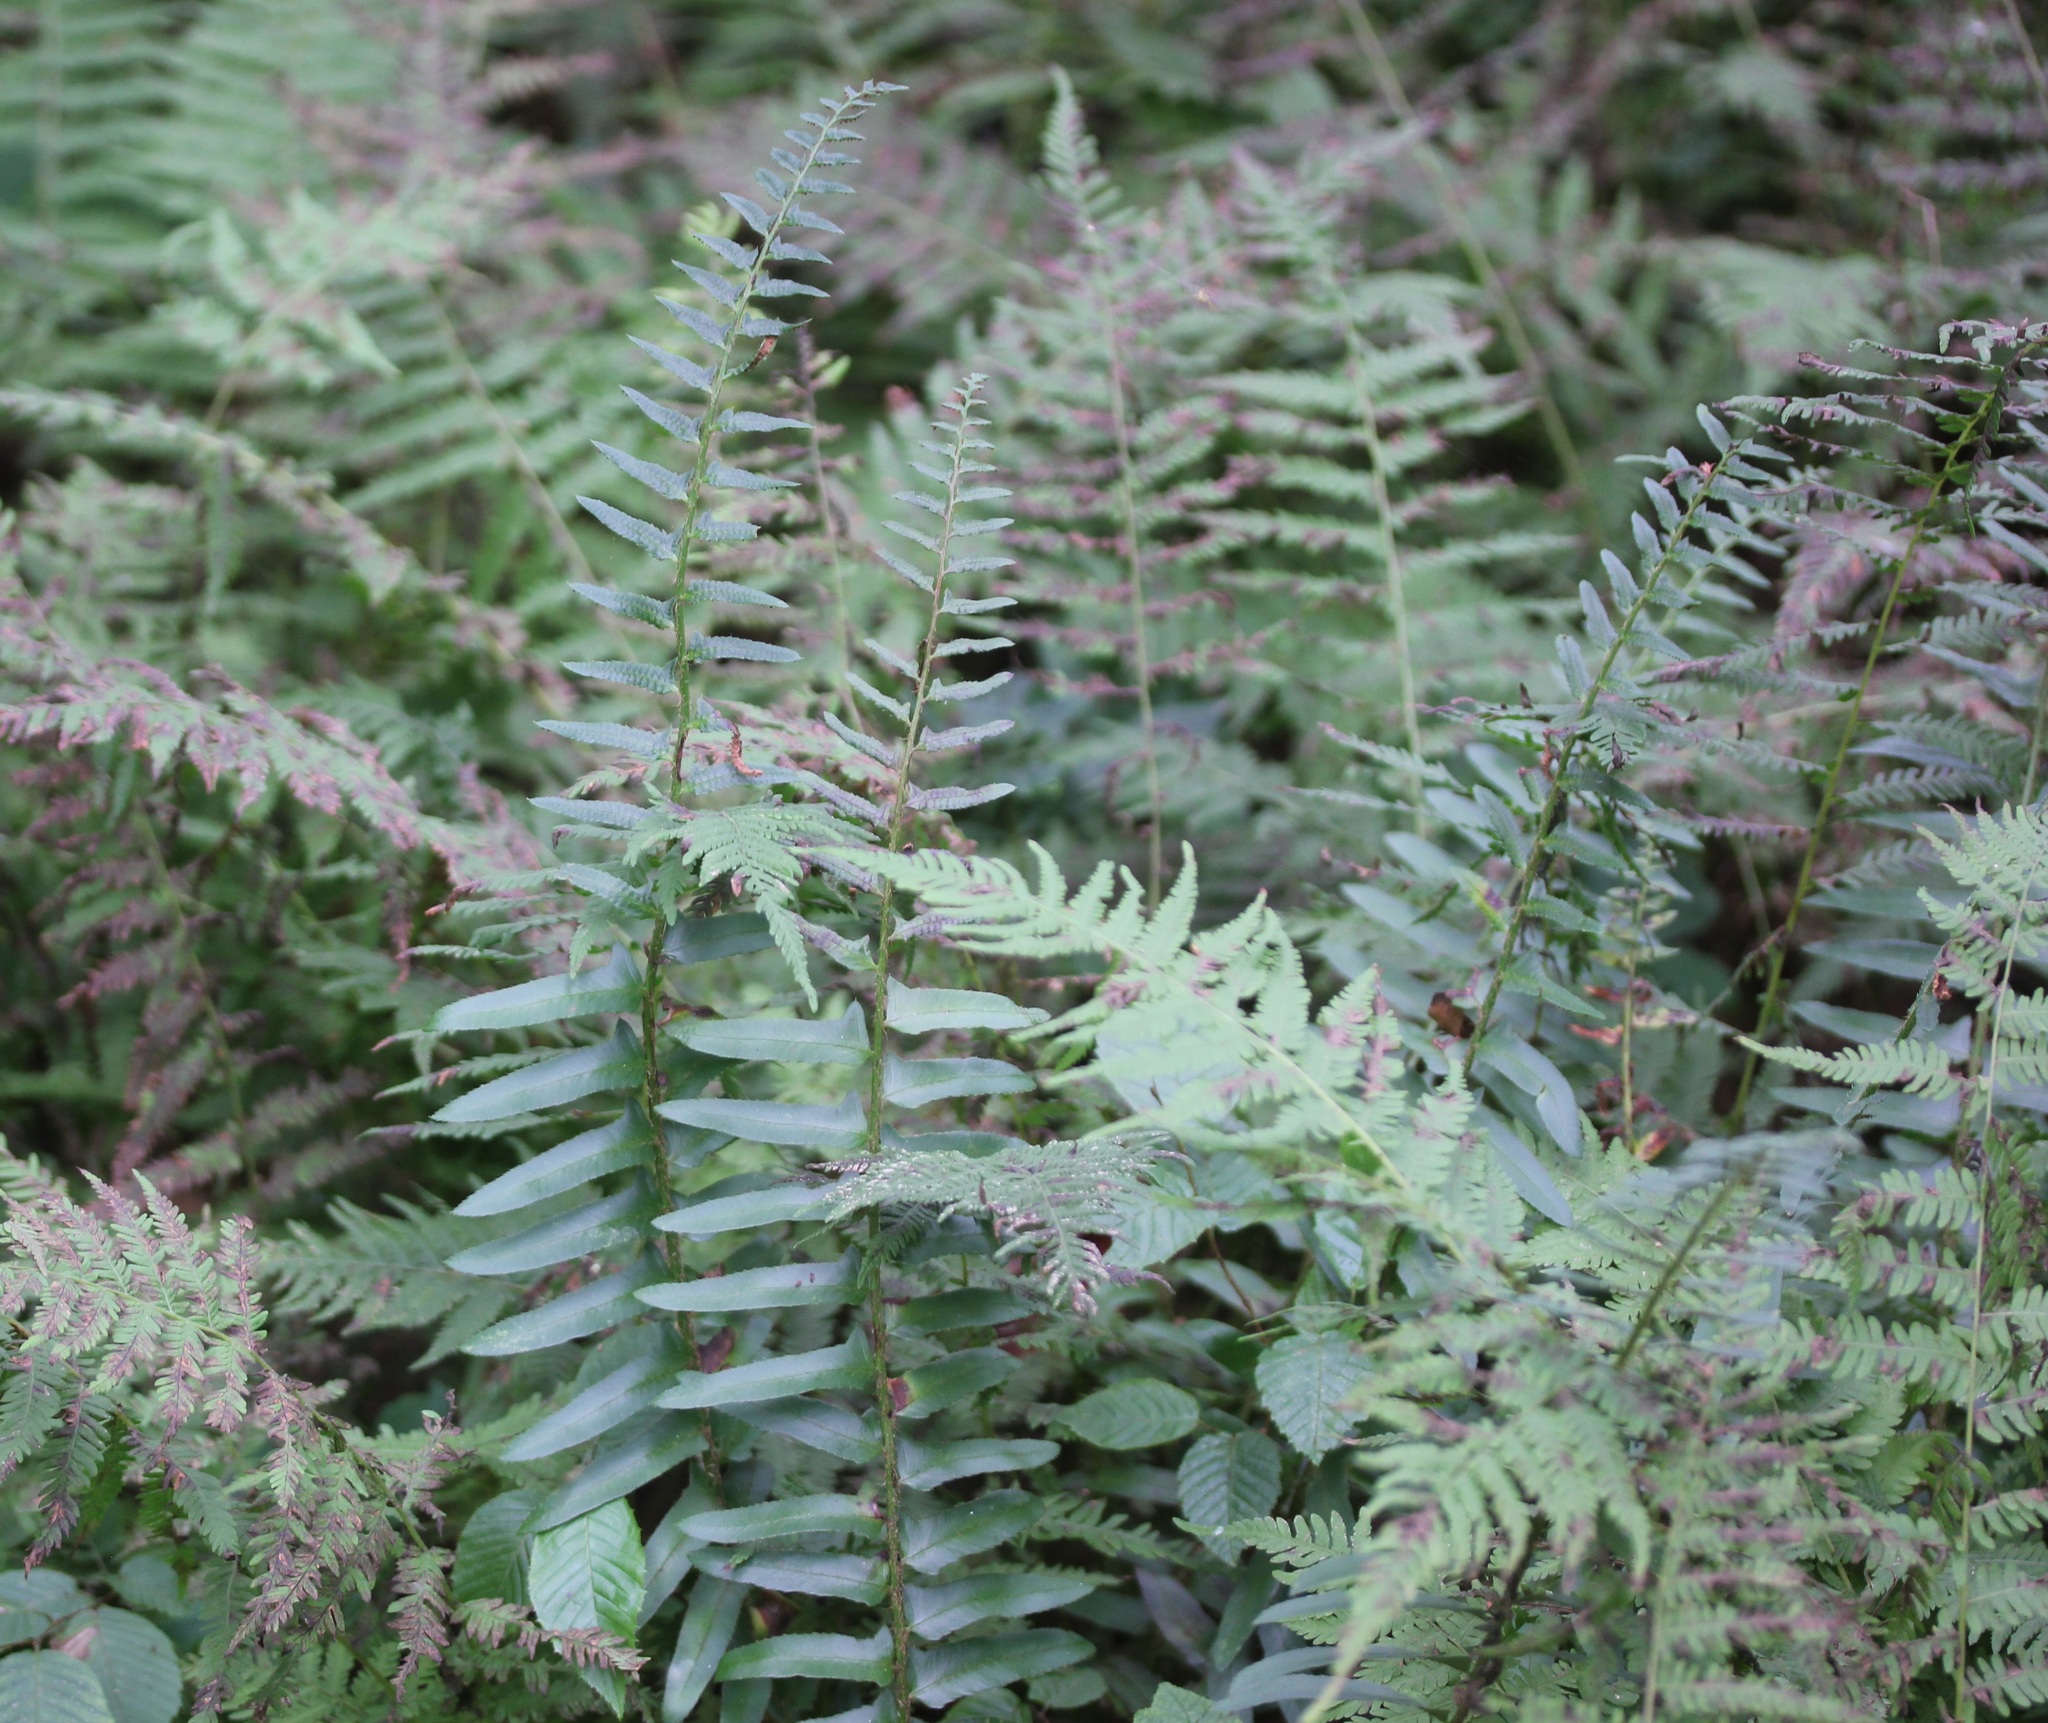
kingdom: Plantae
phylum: Tracheophyta
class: Polypodiopsida
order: Polypodiales
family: Dryopteridaceae
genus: Polystichum
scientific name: Polystichum acrostichoides
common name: Christmas fern
